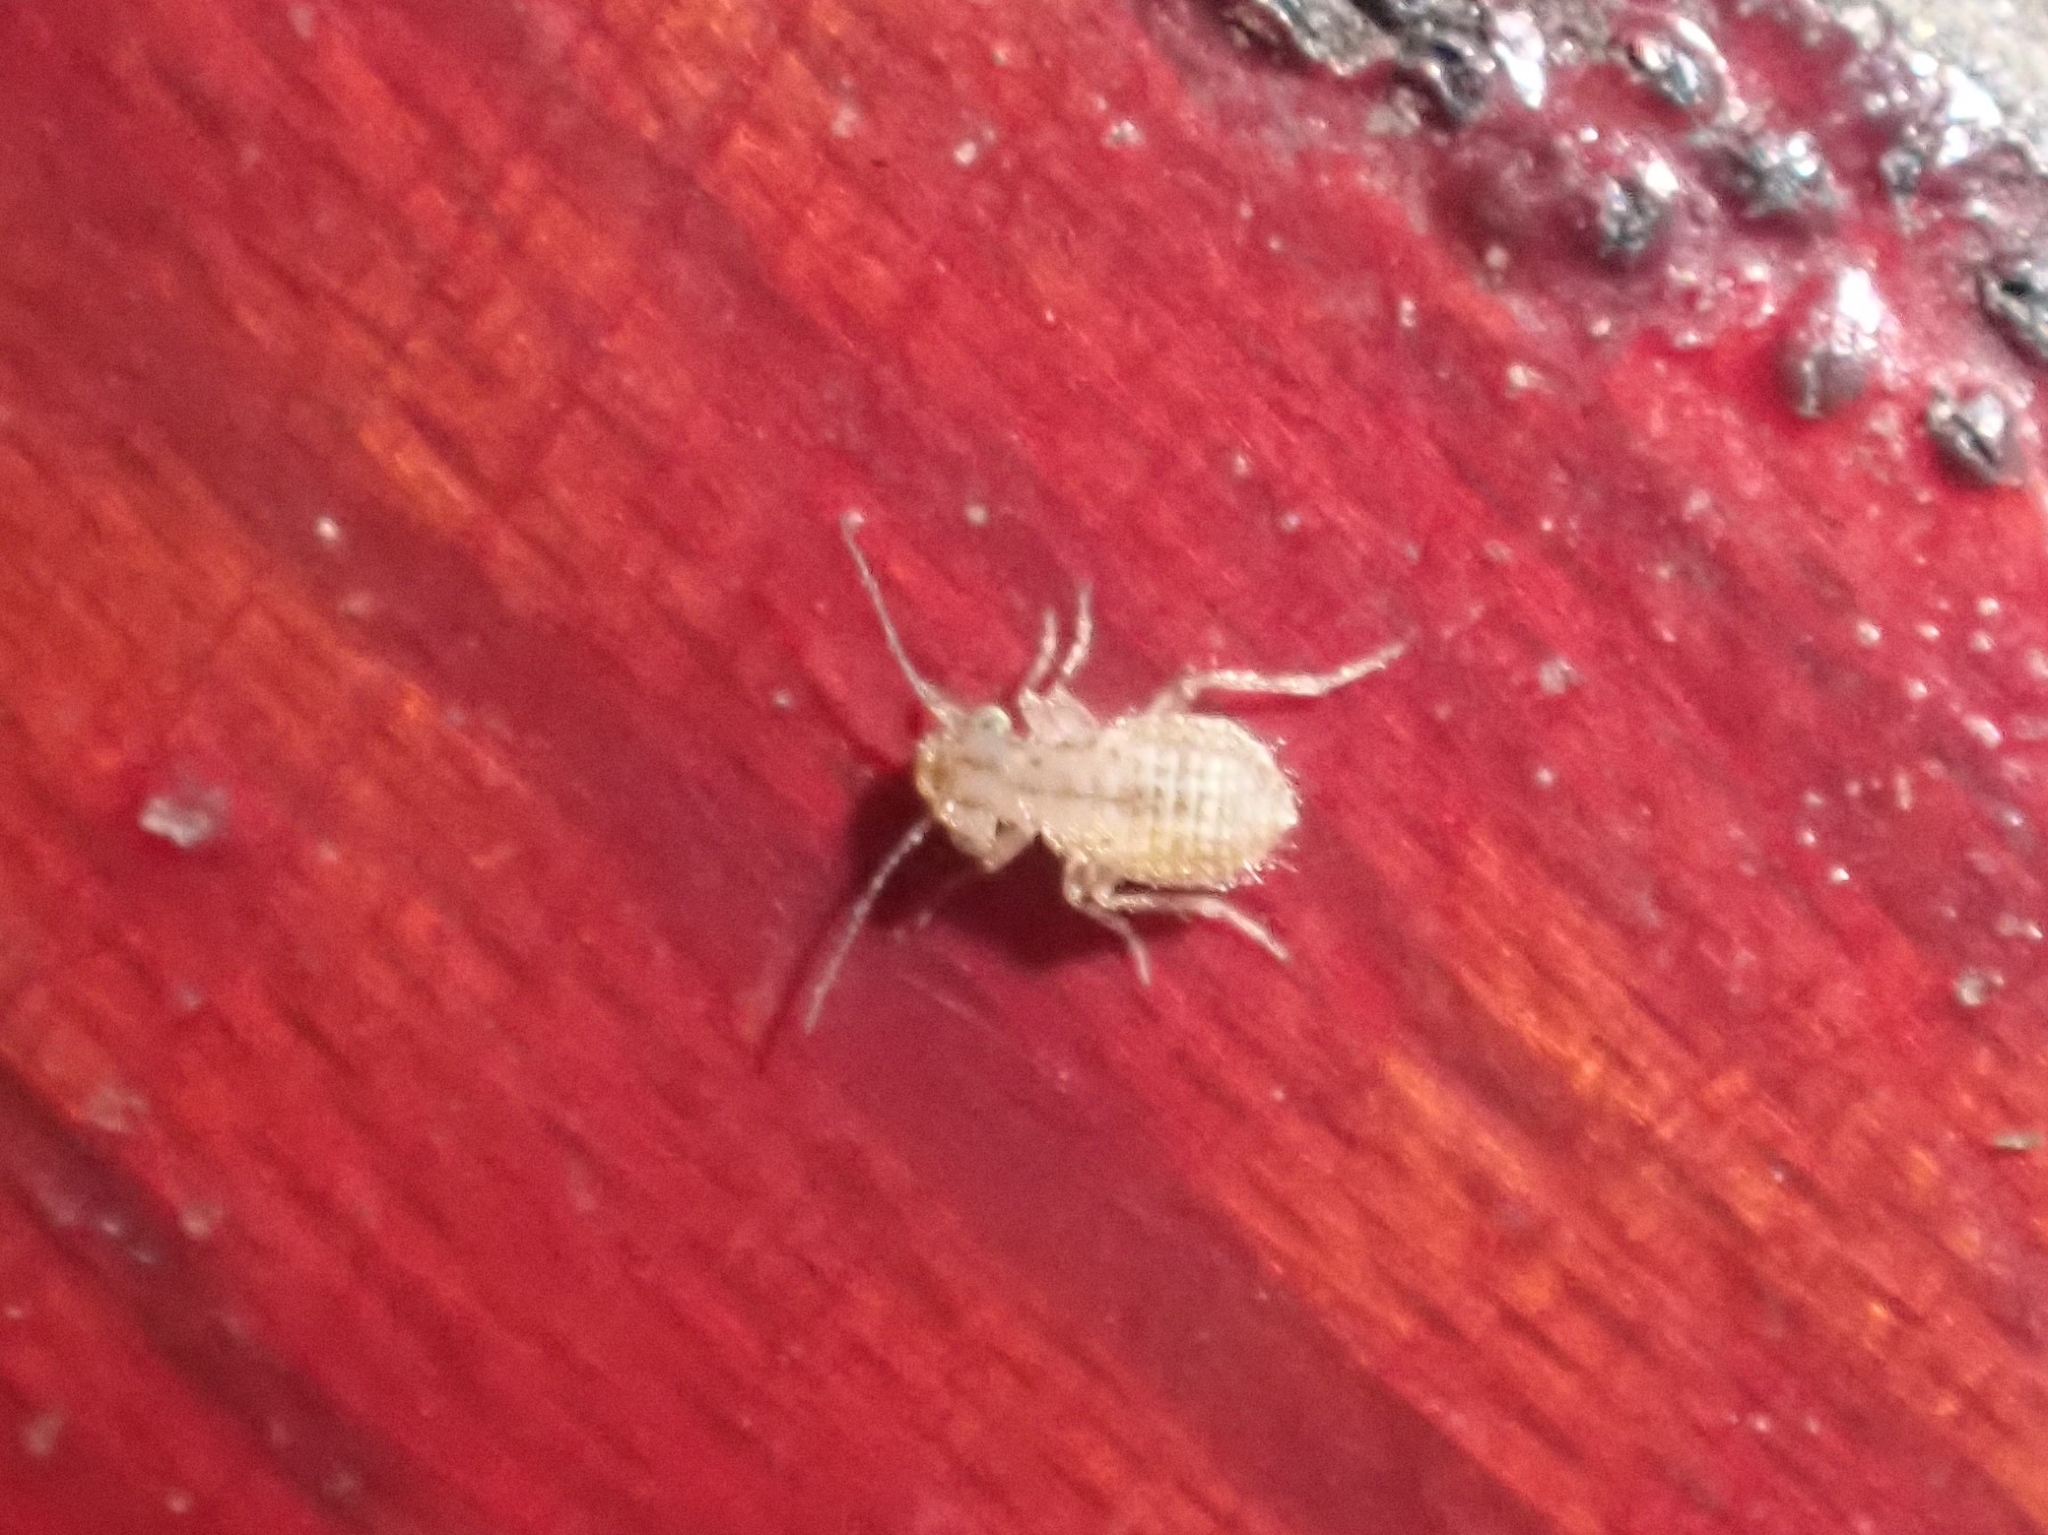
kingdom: Animalia
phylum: Arthropoda
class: Insecta
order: Psocodea
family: Trogiidae
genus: Cerobasis
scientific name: Cerobasis guestfalica
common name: Book lice
